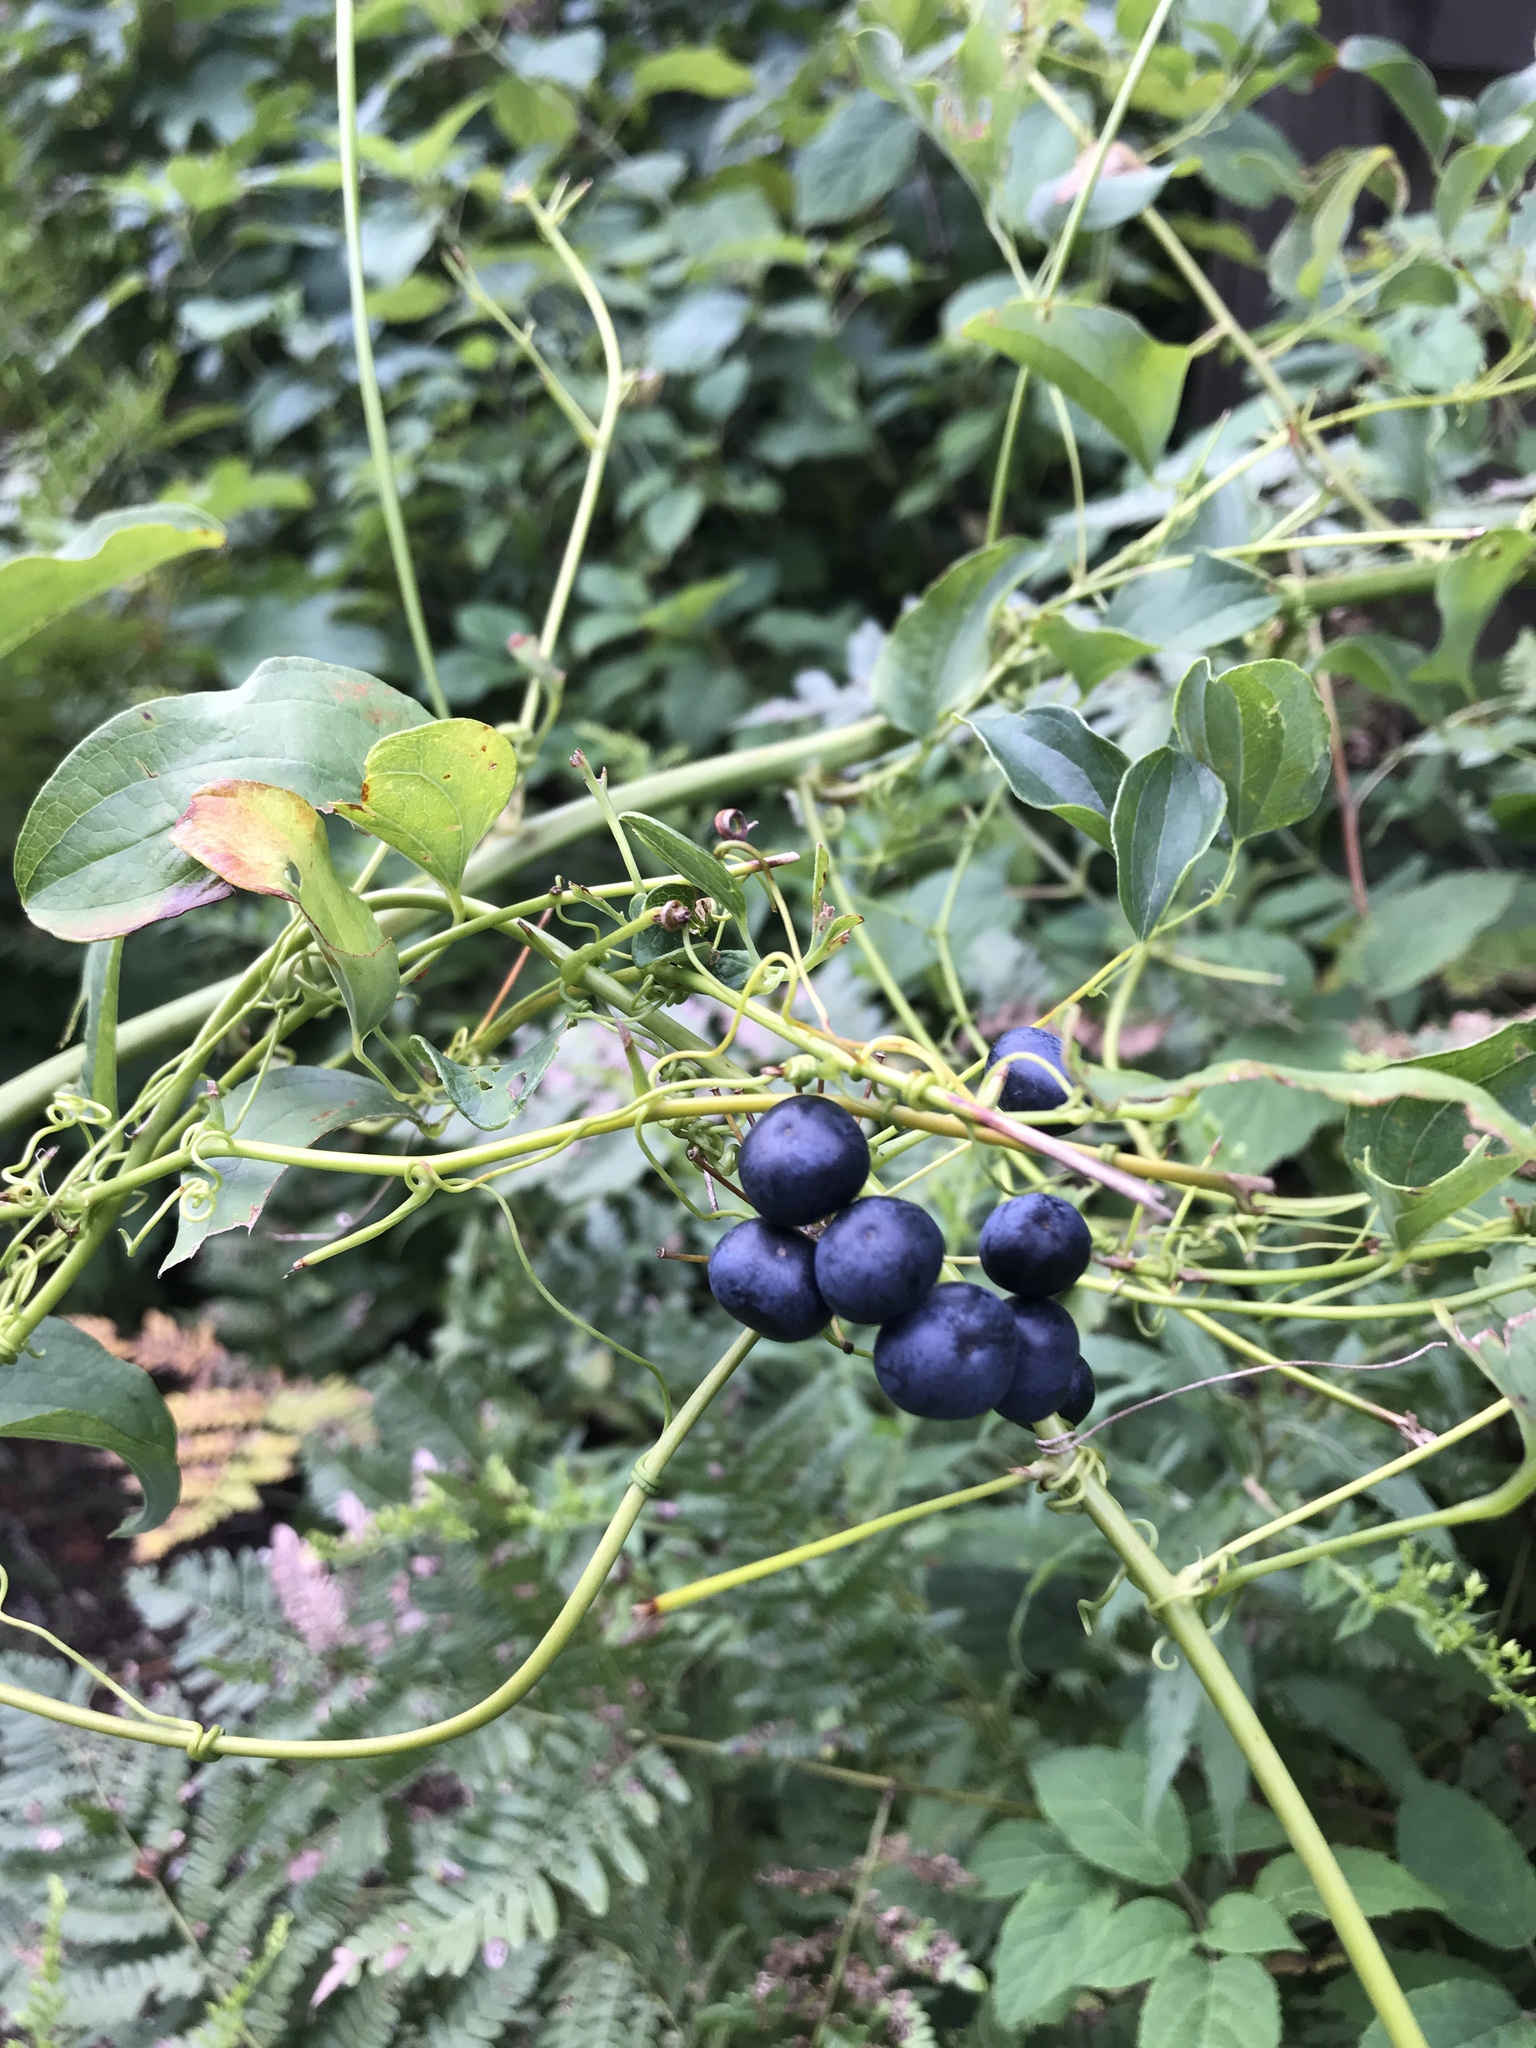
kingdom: Plantae
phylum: Tracheophyta
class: Liliopsida
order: Liliales
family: Smilacaceae
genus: Smilax
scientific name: Smilax herbacea
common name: Jacob's-ladder
